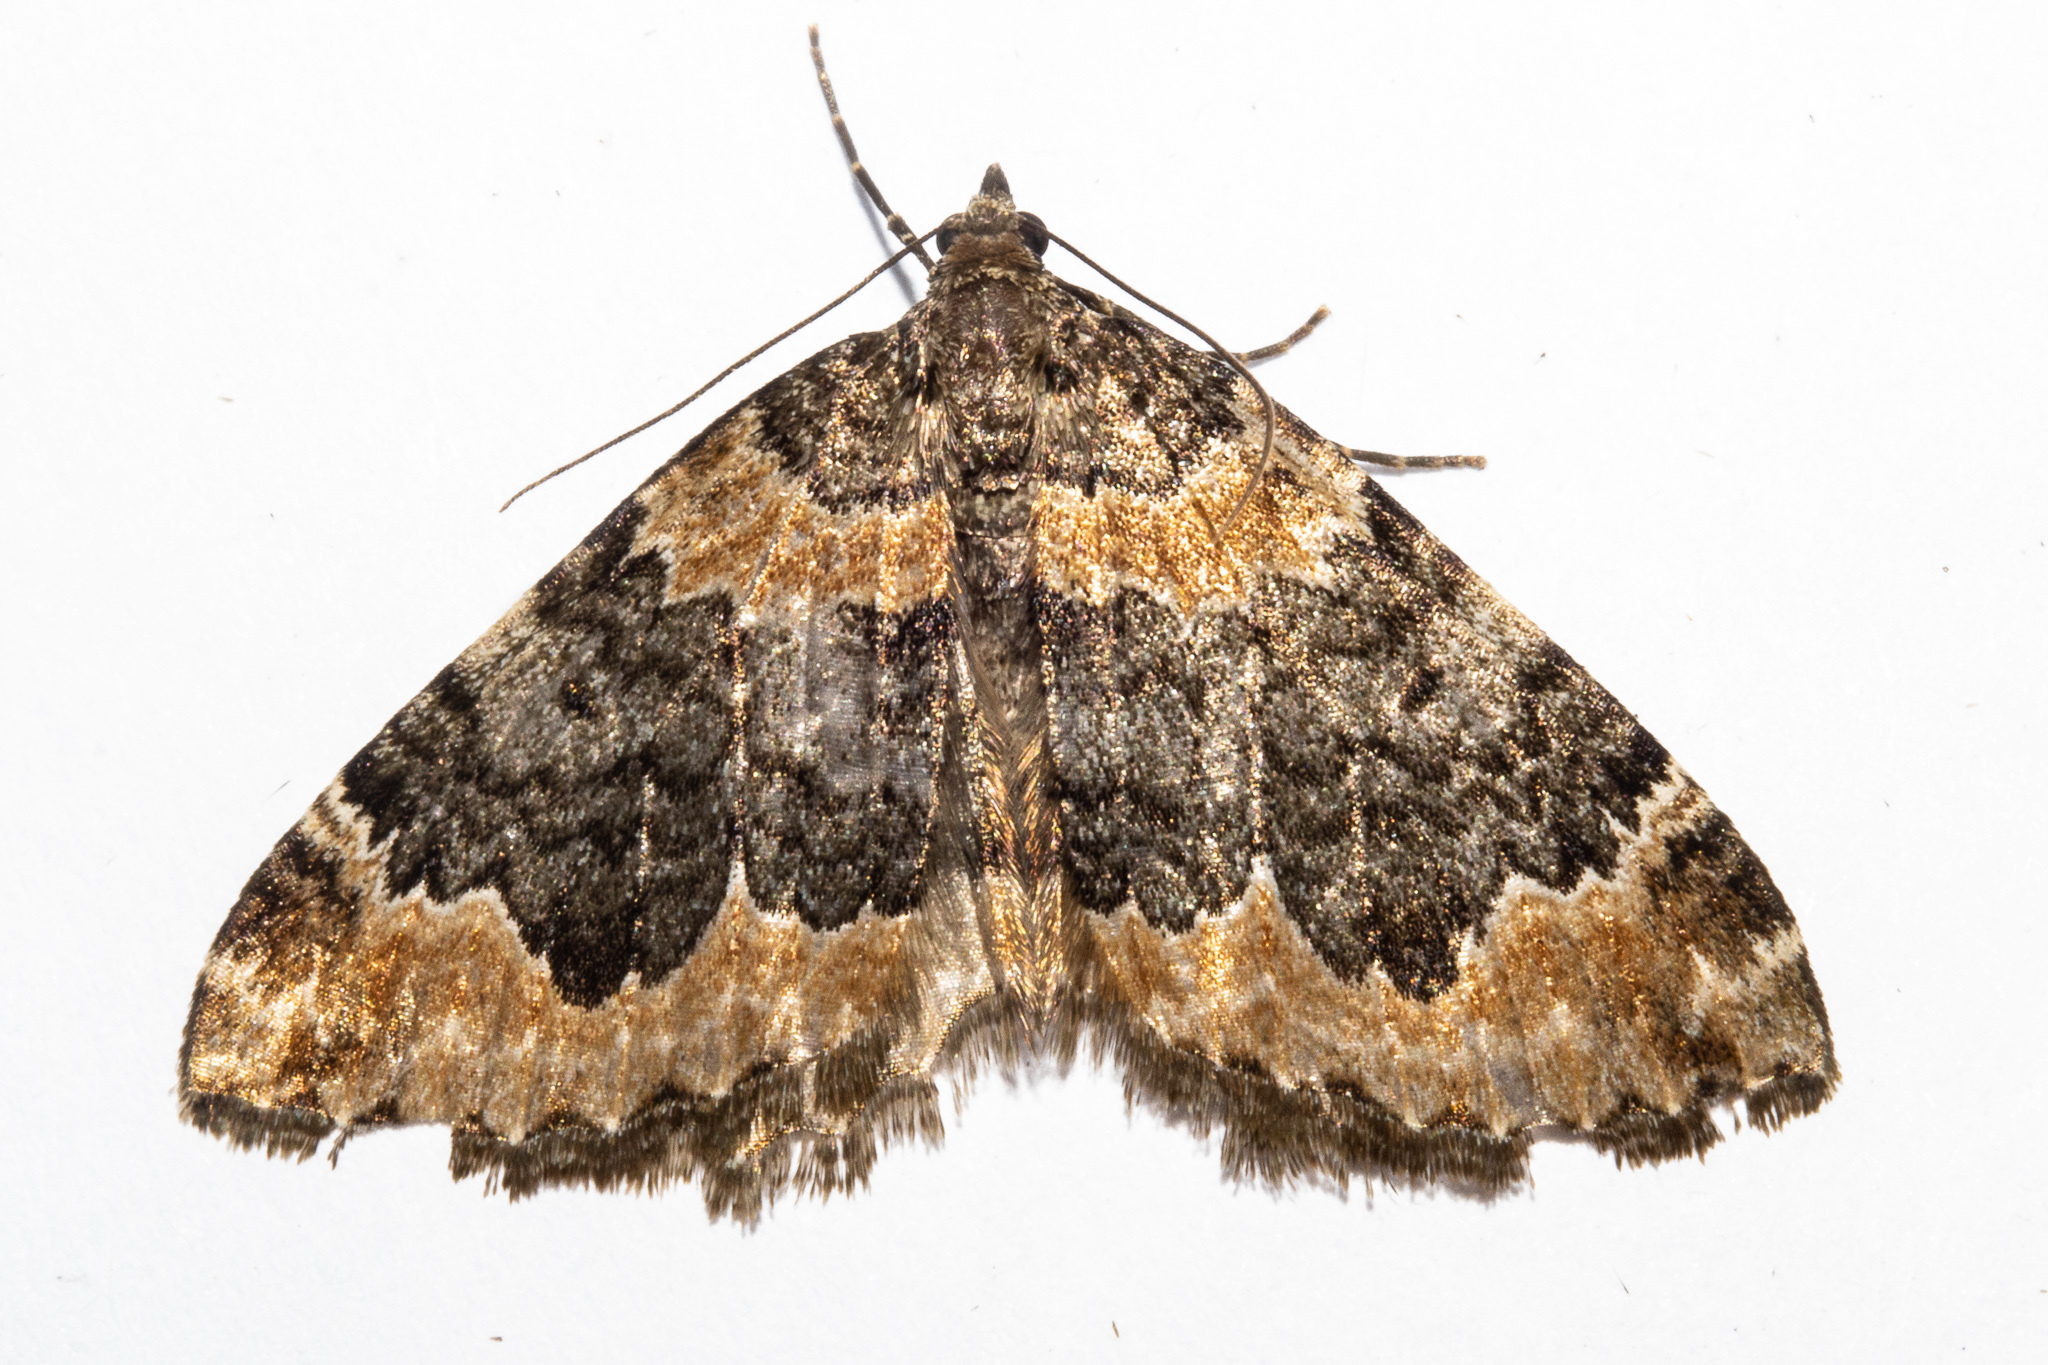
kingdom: Animalia
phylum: Arthropoda
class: Insecta
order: Lepidoptera
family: Geometridae
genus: Hydriomena
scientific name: Hydriomena hemizona
